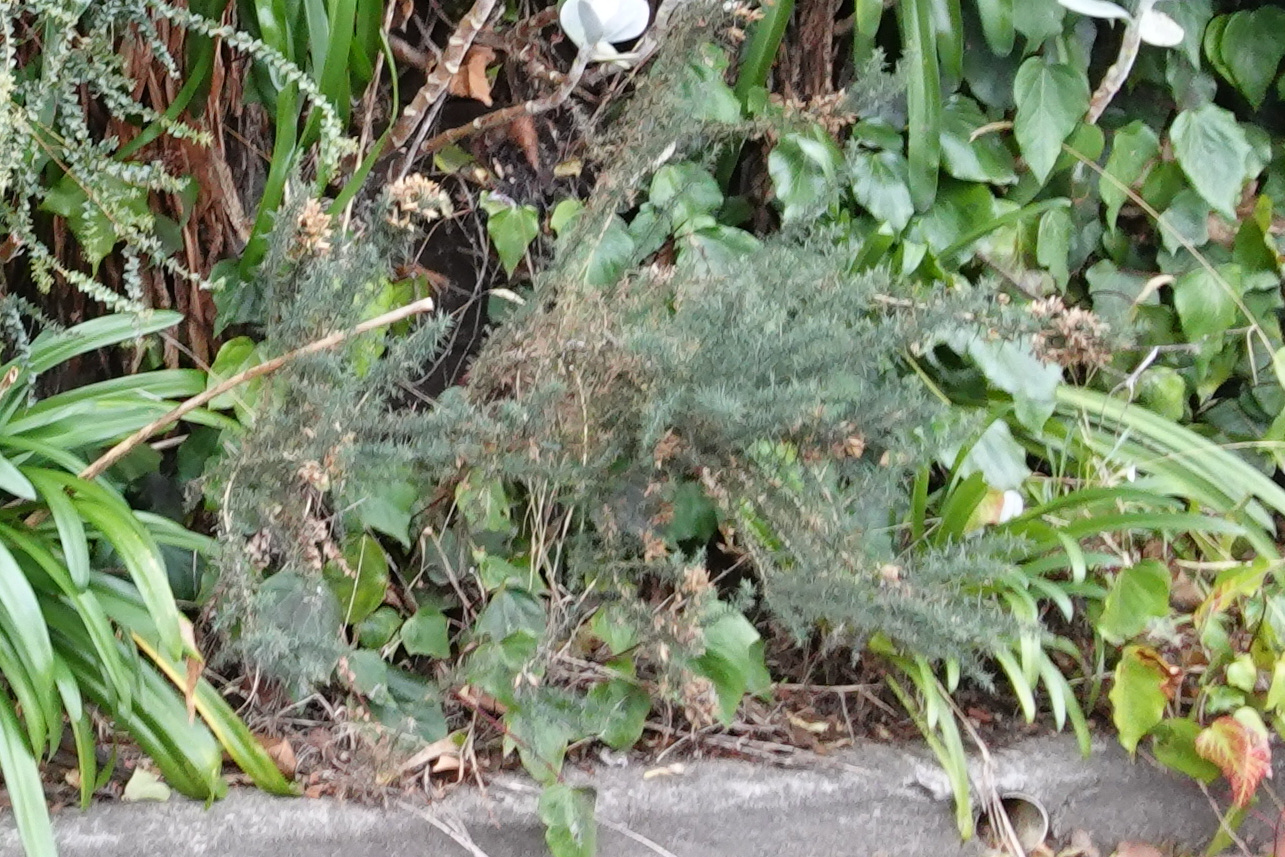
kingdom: Plantae
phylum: Tracheophyta
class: Magnoliopsida
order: Fabales
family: Fabaceae
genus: Ulex
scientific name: Ulex europaeus
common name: Common gorse
